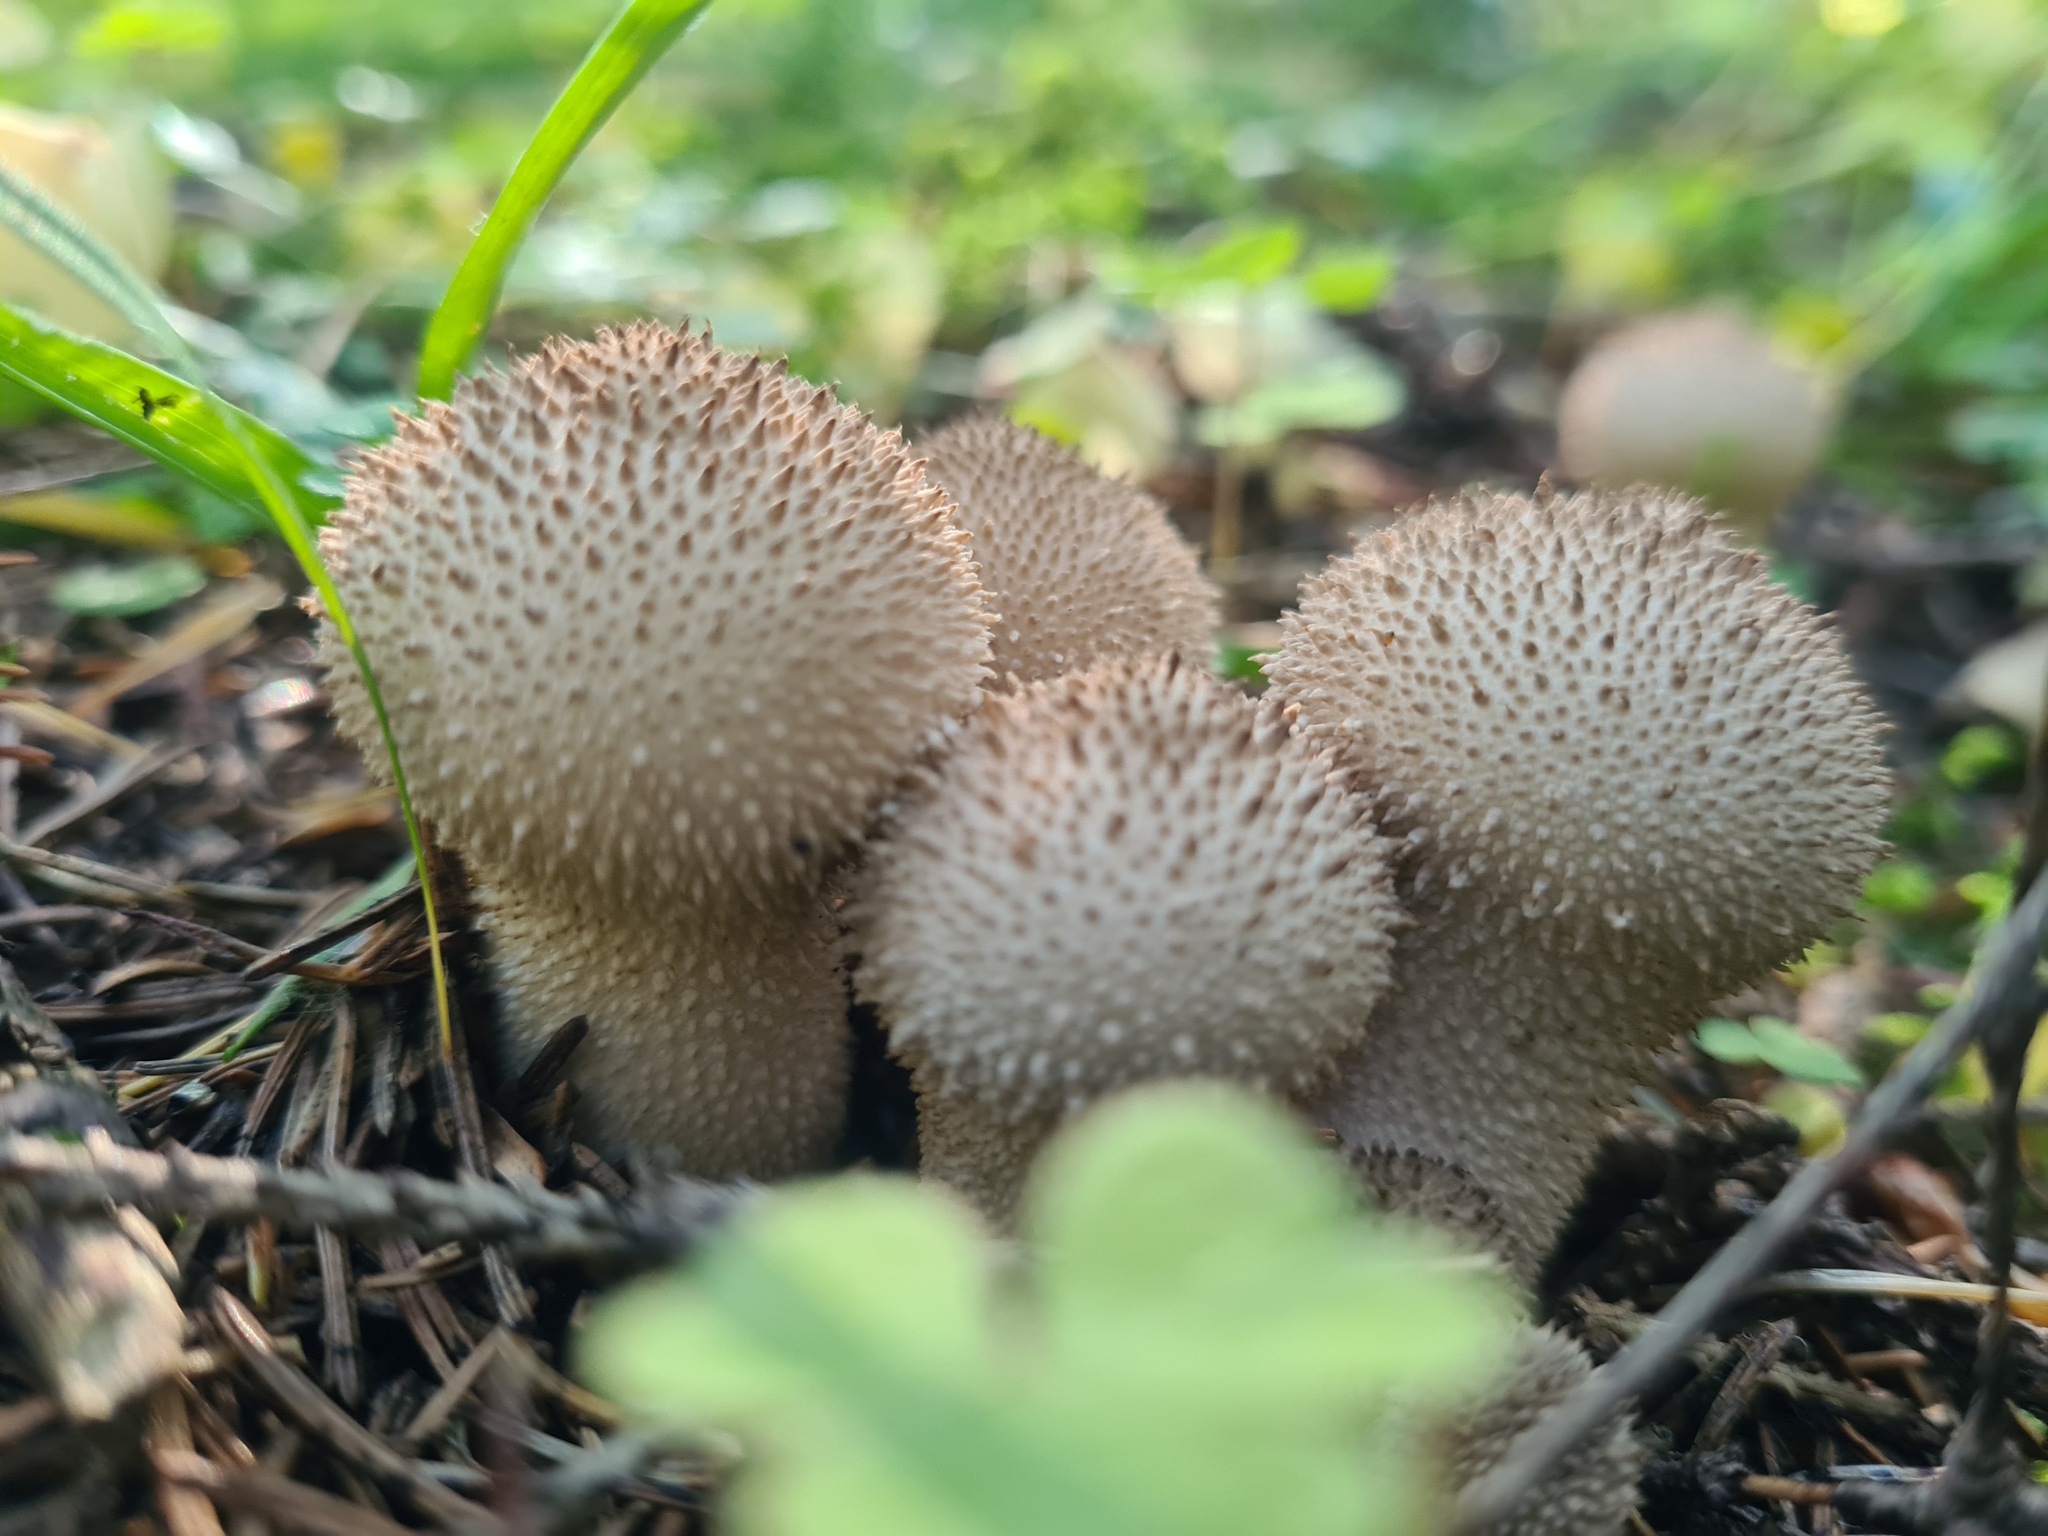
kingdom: Fungi
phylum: Basidiomycota
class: Agaricomycetes
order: Agaricales
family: Lycoperdaceae
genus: Lycoperdon
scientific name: Lycoperdon perlatum
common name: Common puffball
